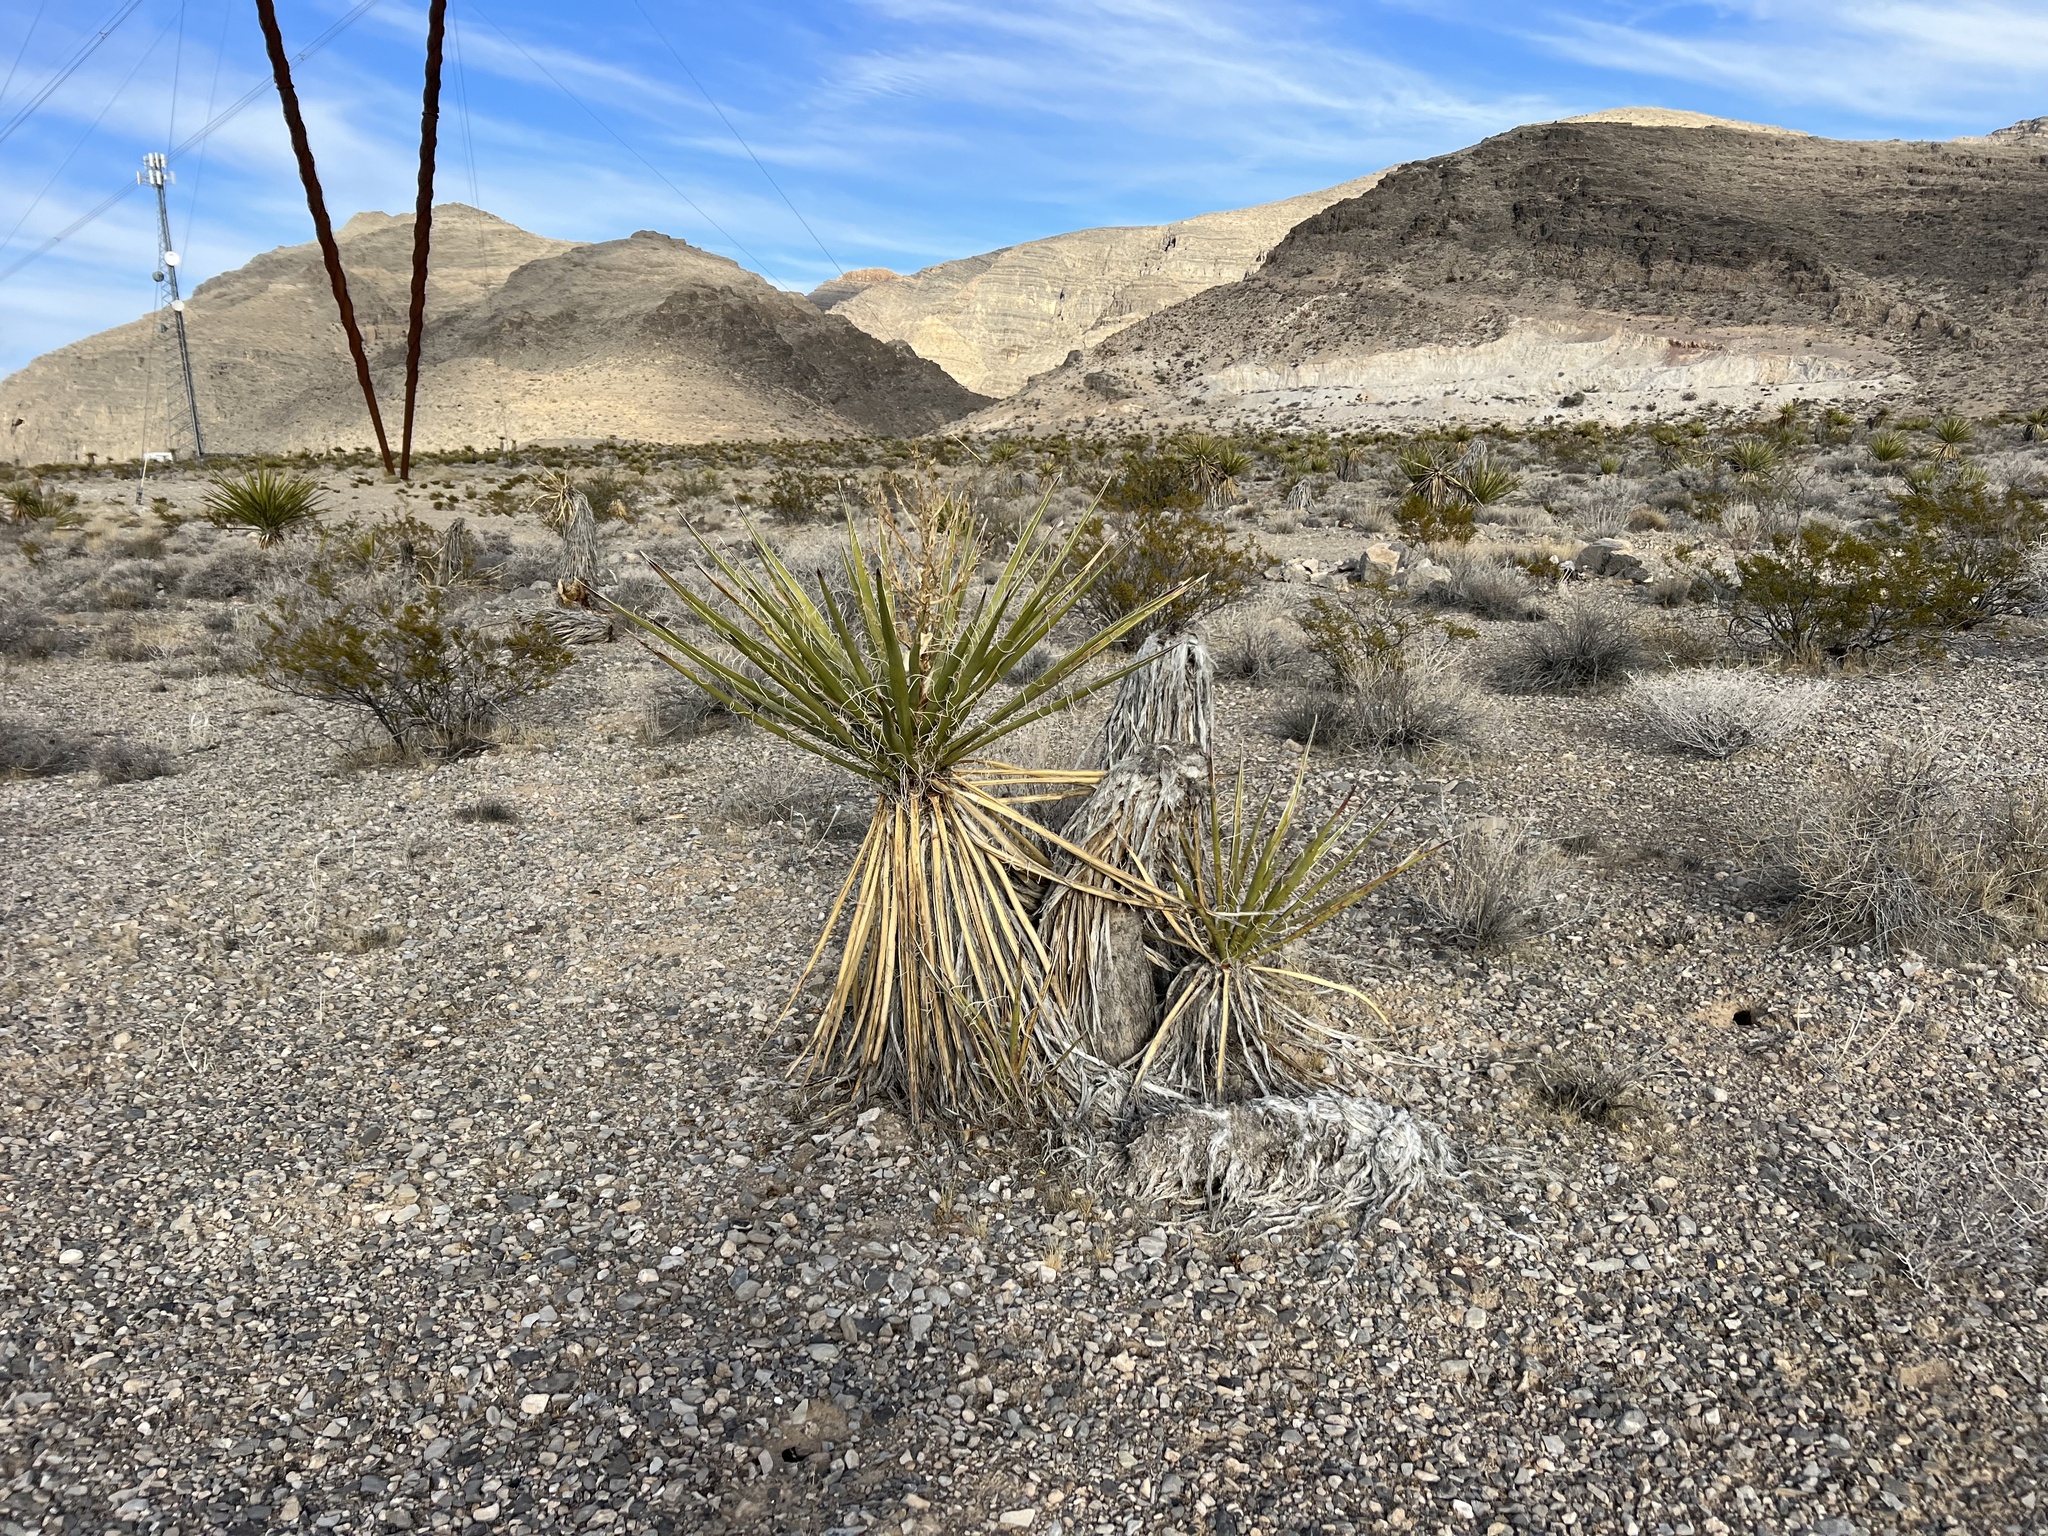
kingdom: Plantae
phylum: Tracheophyta
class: Liliopsida
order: Asparagales
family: Asparagaceae
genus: Yucca
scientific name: Yucca schidigera
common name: Mojave yucca
